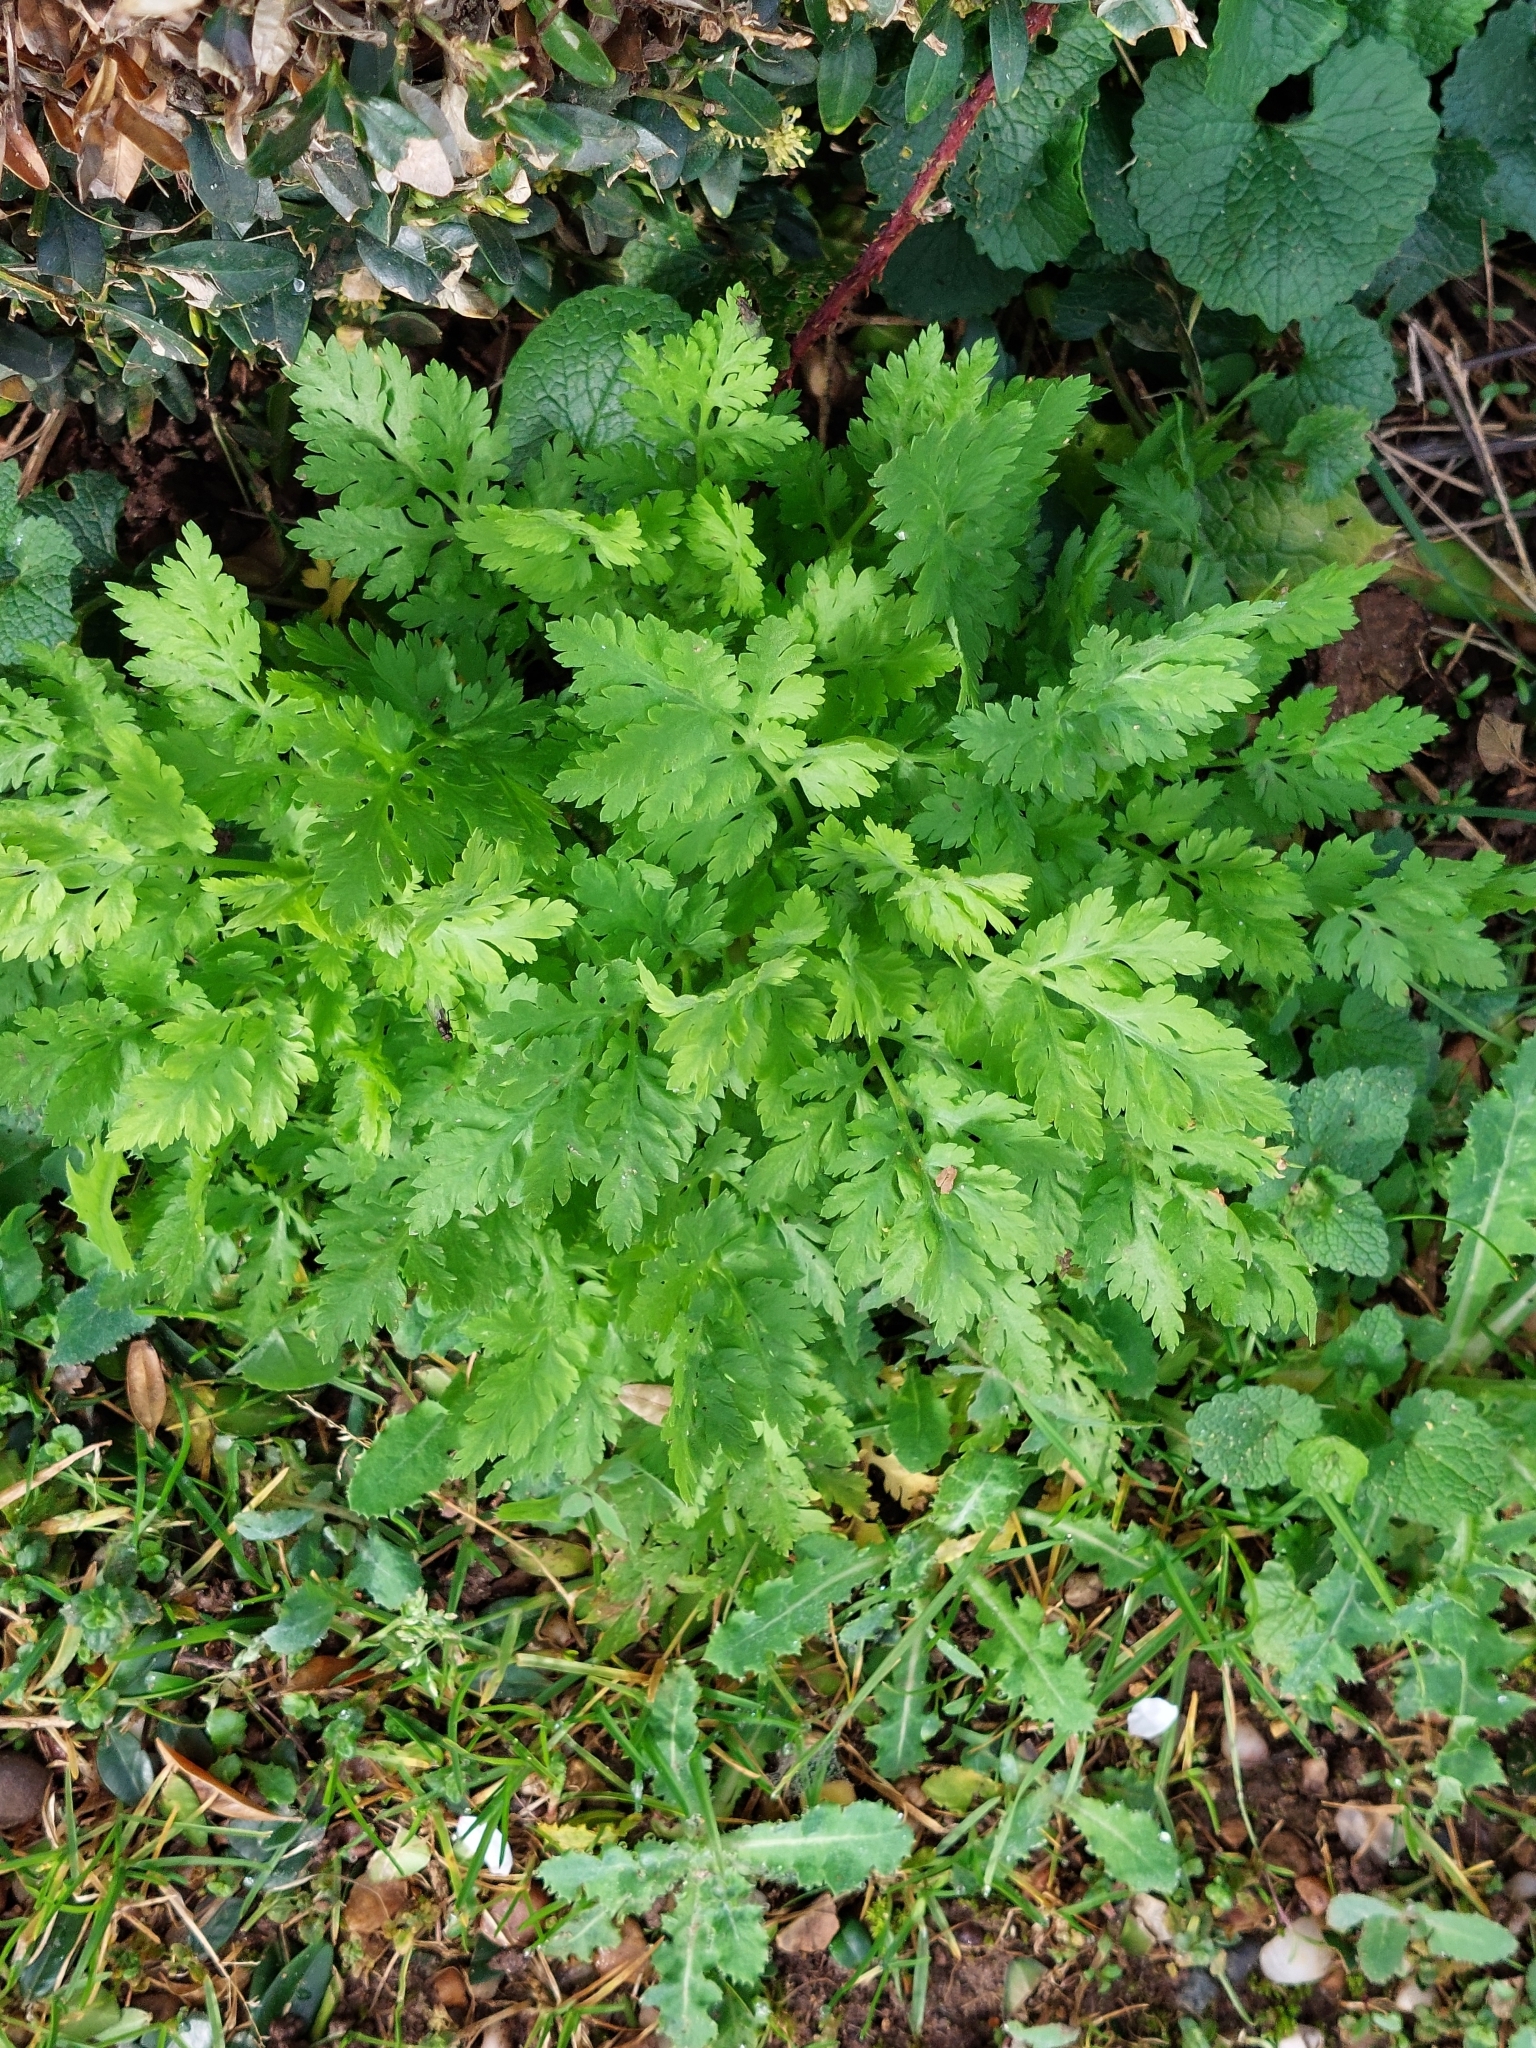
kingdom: Plantae
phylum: Tracheophyta
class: Magnoliopsida
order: Asterales
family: Asteraceae
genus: Tanacetum
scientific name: Tanacetum parthenium
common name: Feverfew
